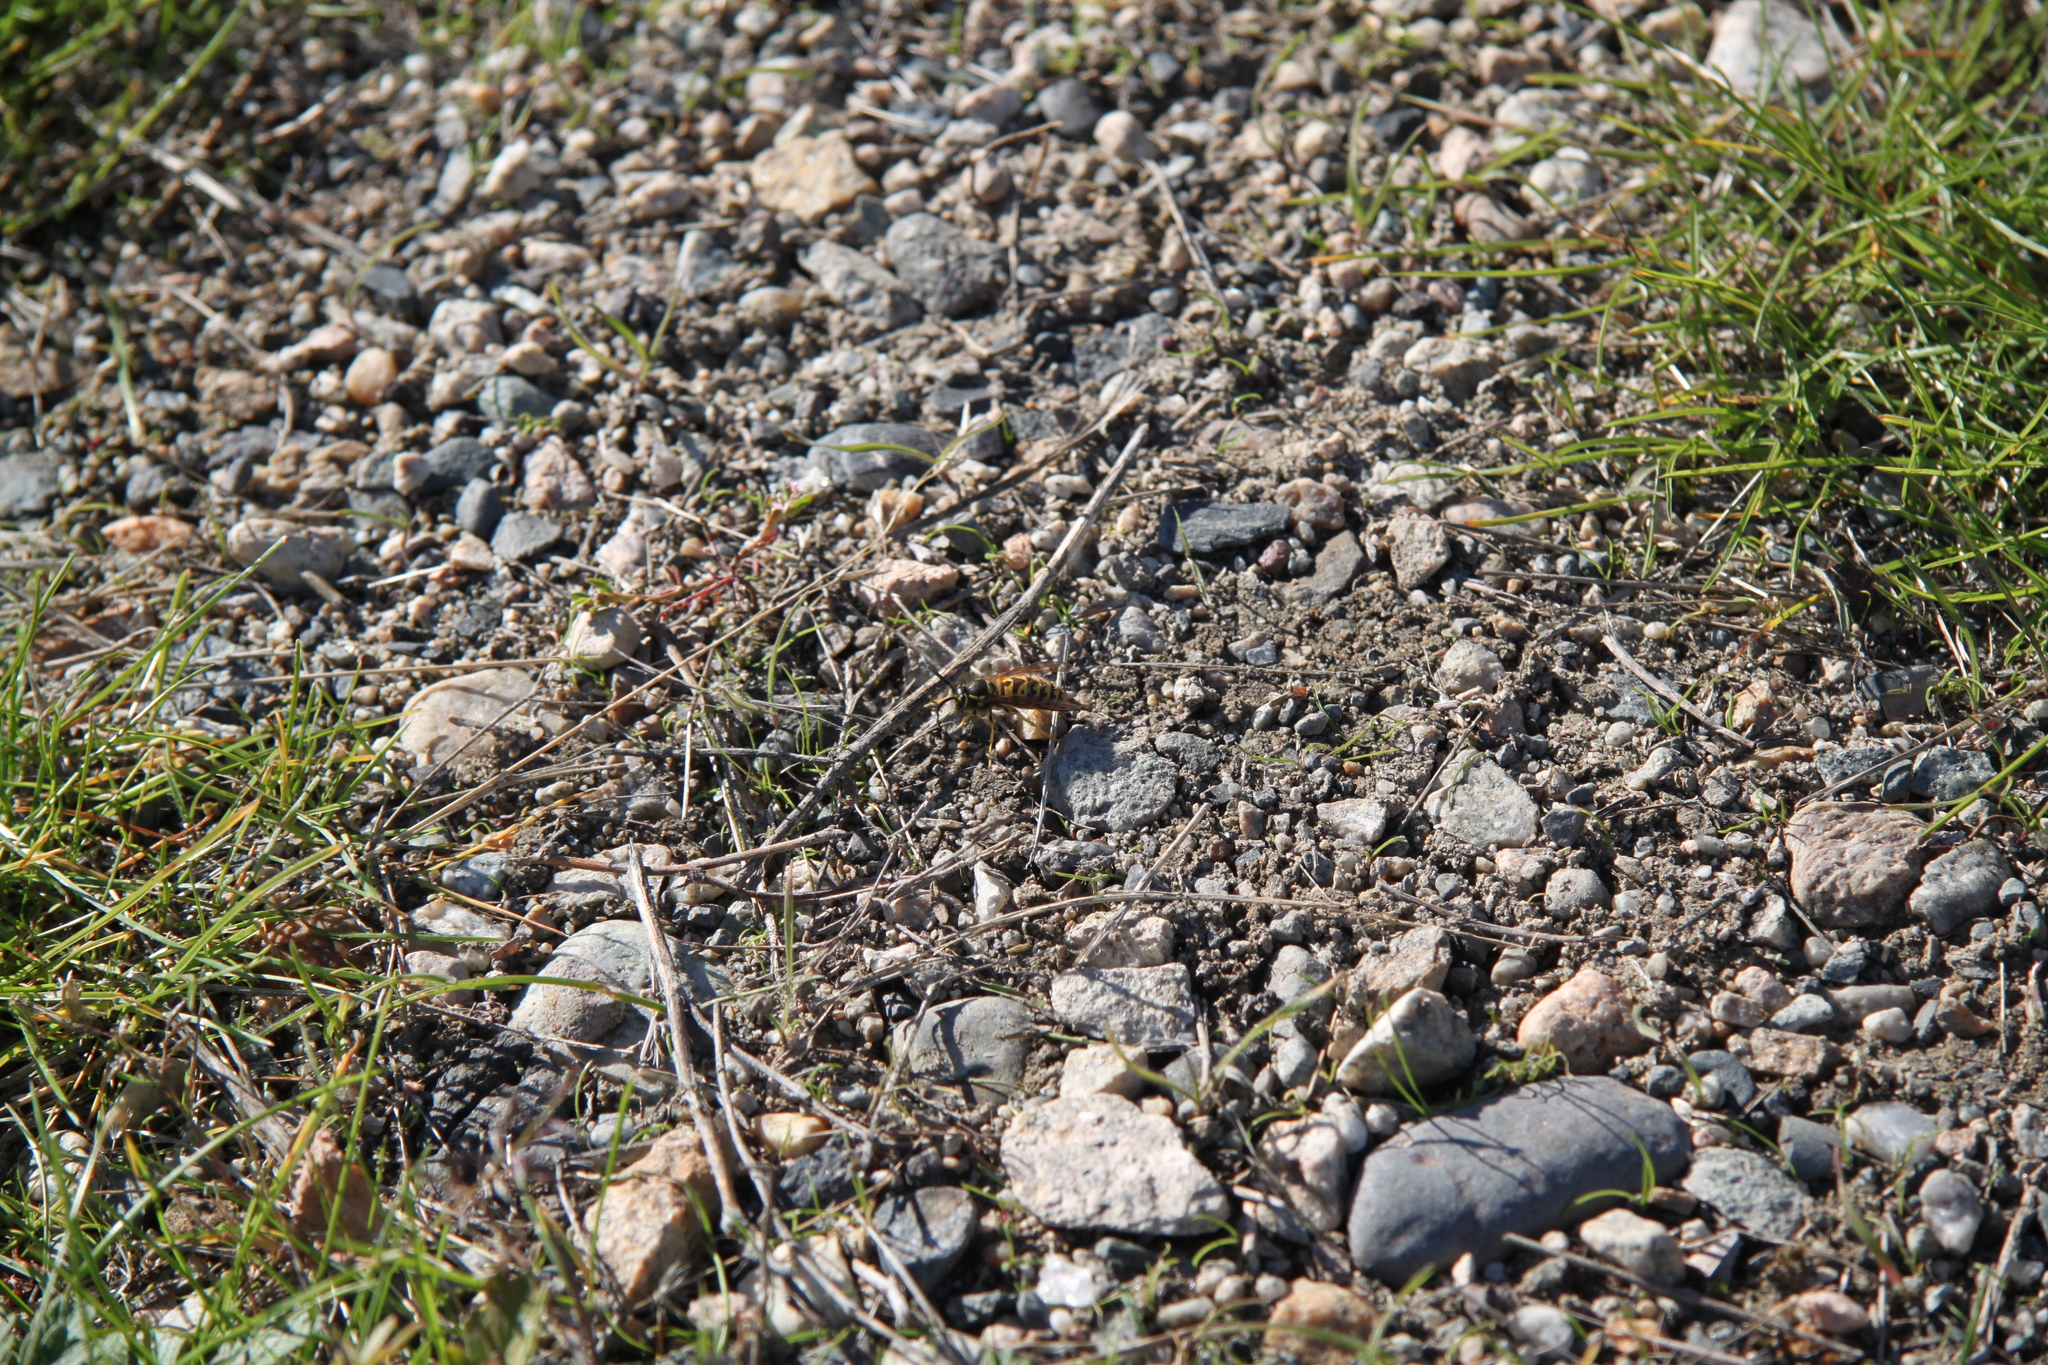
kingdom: Animalia
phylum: Arthropoda
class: Insecta
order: Hymenoptera
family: Vespidae
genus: Vespula
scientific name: Vespula pensylvanica
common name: Western yellowjacket
